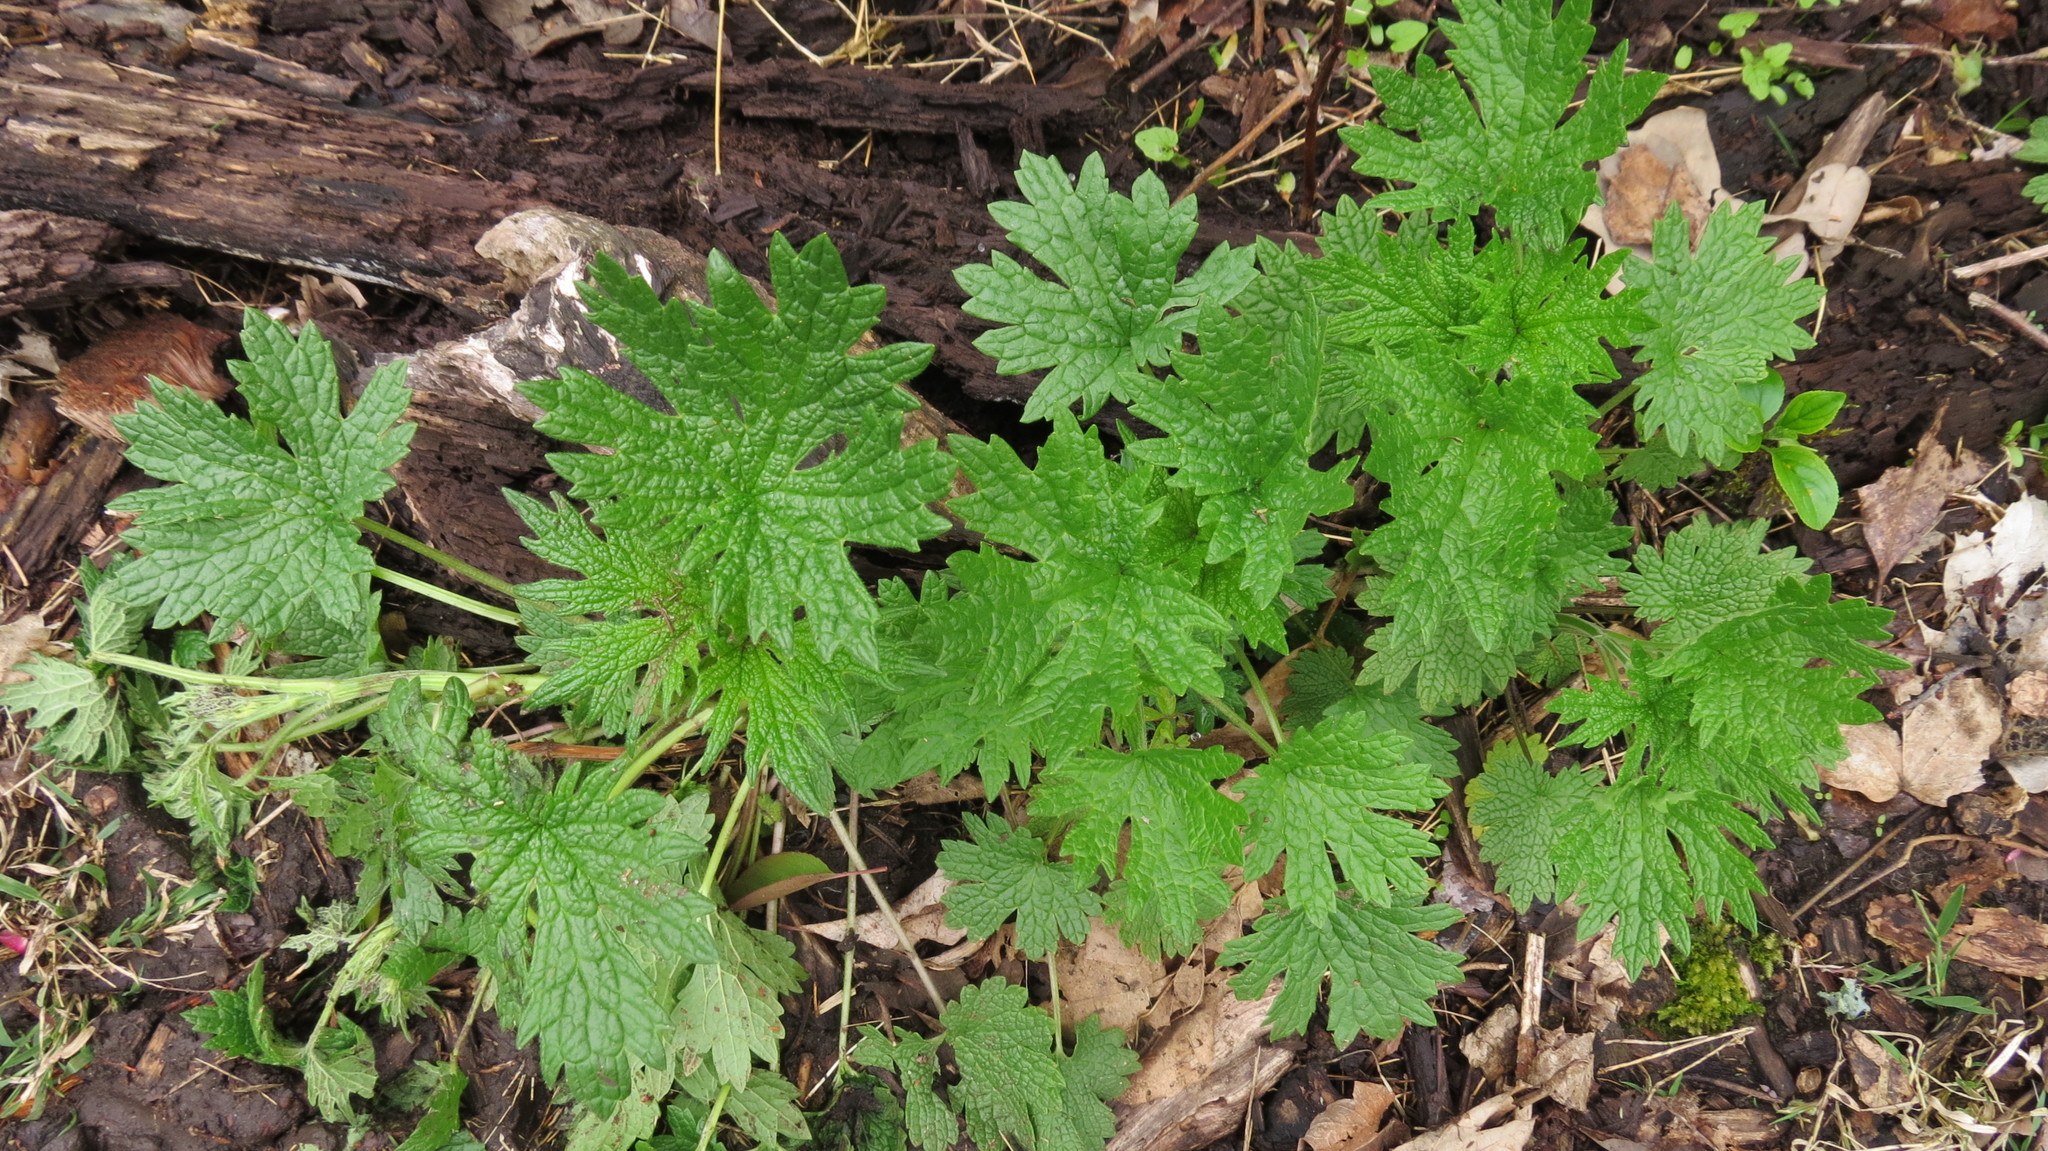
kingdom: Plantae
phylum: Tracheophyta
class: Magnoliopsida
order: Lamiales
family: Lamiaceae
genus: Leonurus
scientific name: Leonurus cardiaca
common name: Motherwort
